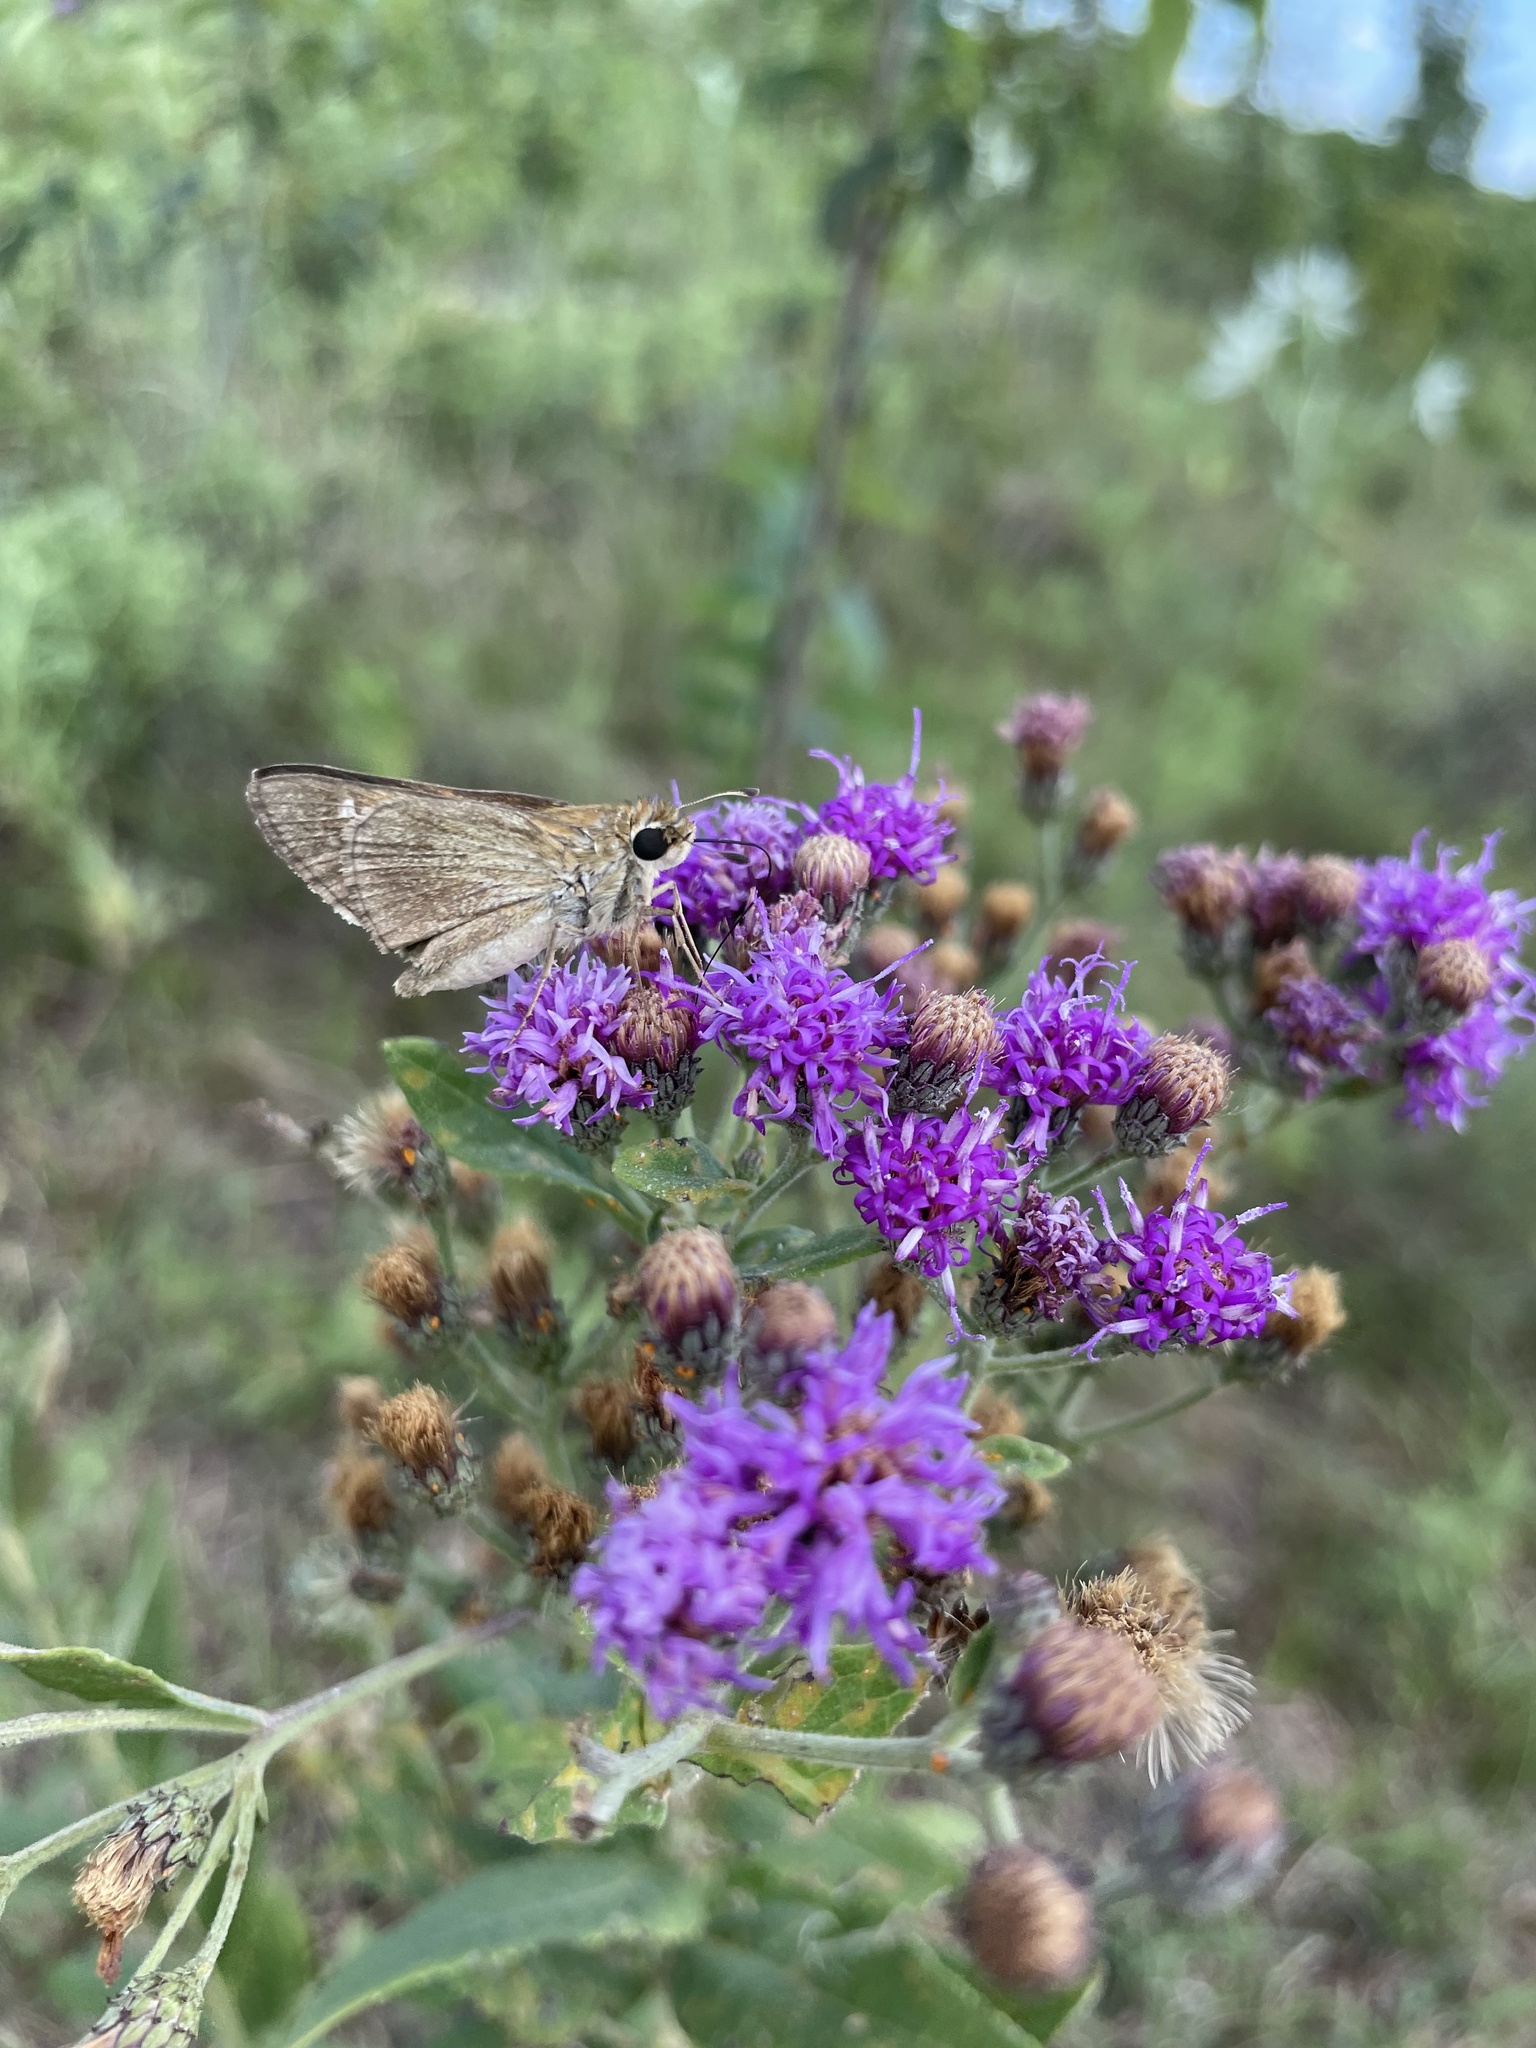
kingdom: Animalia
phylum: Arthropoda
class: Insecta
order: Lepidoptera
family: Hesperiidae
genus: Lerodea
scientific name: Lerodea eufala
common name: Eufala skipper
